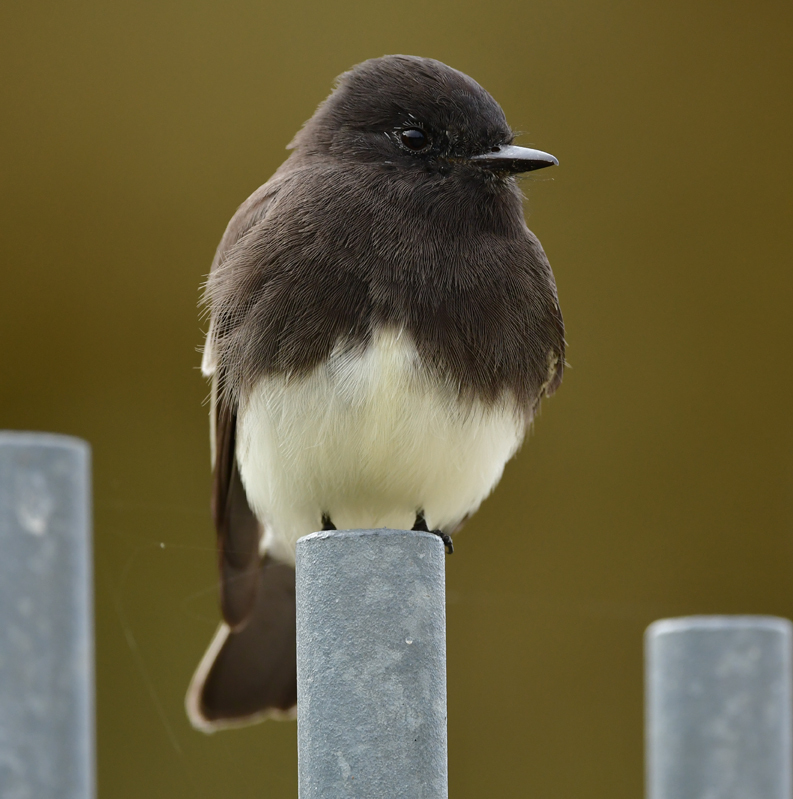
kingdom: Animalia
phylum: Chordata
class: Aves
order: Passeriformes
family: Tyrannidae
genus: Sayornis
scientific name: Sayornis nigricans
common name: Black phoebe
